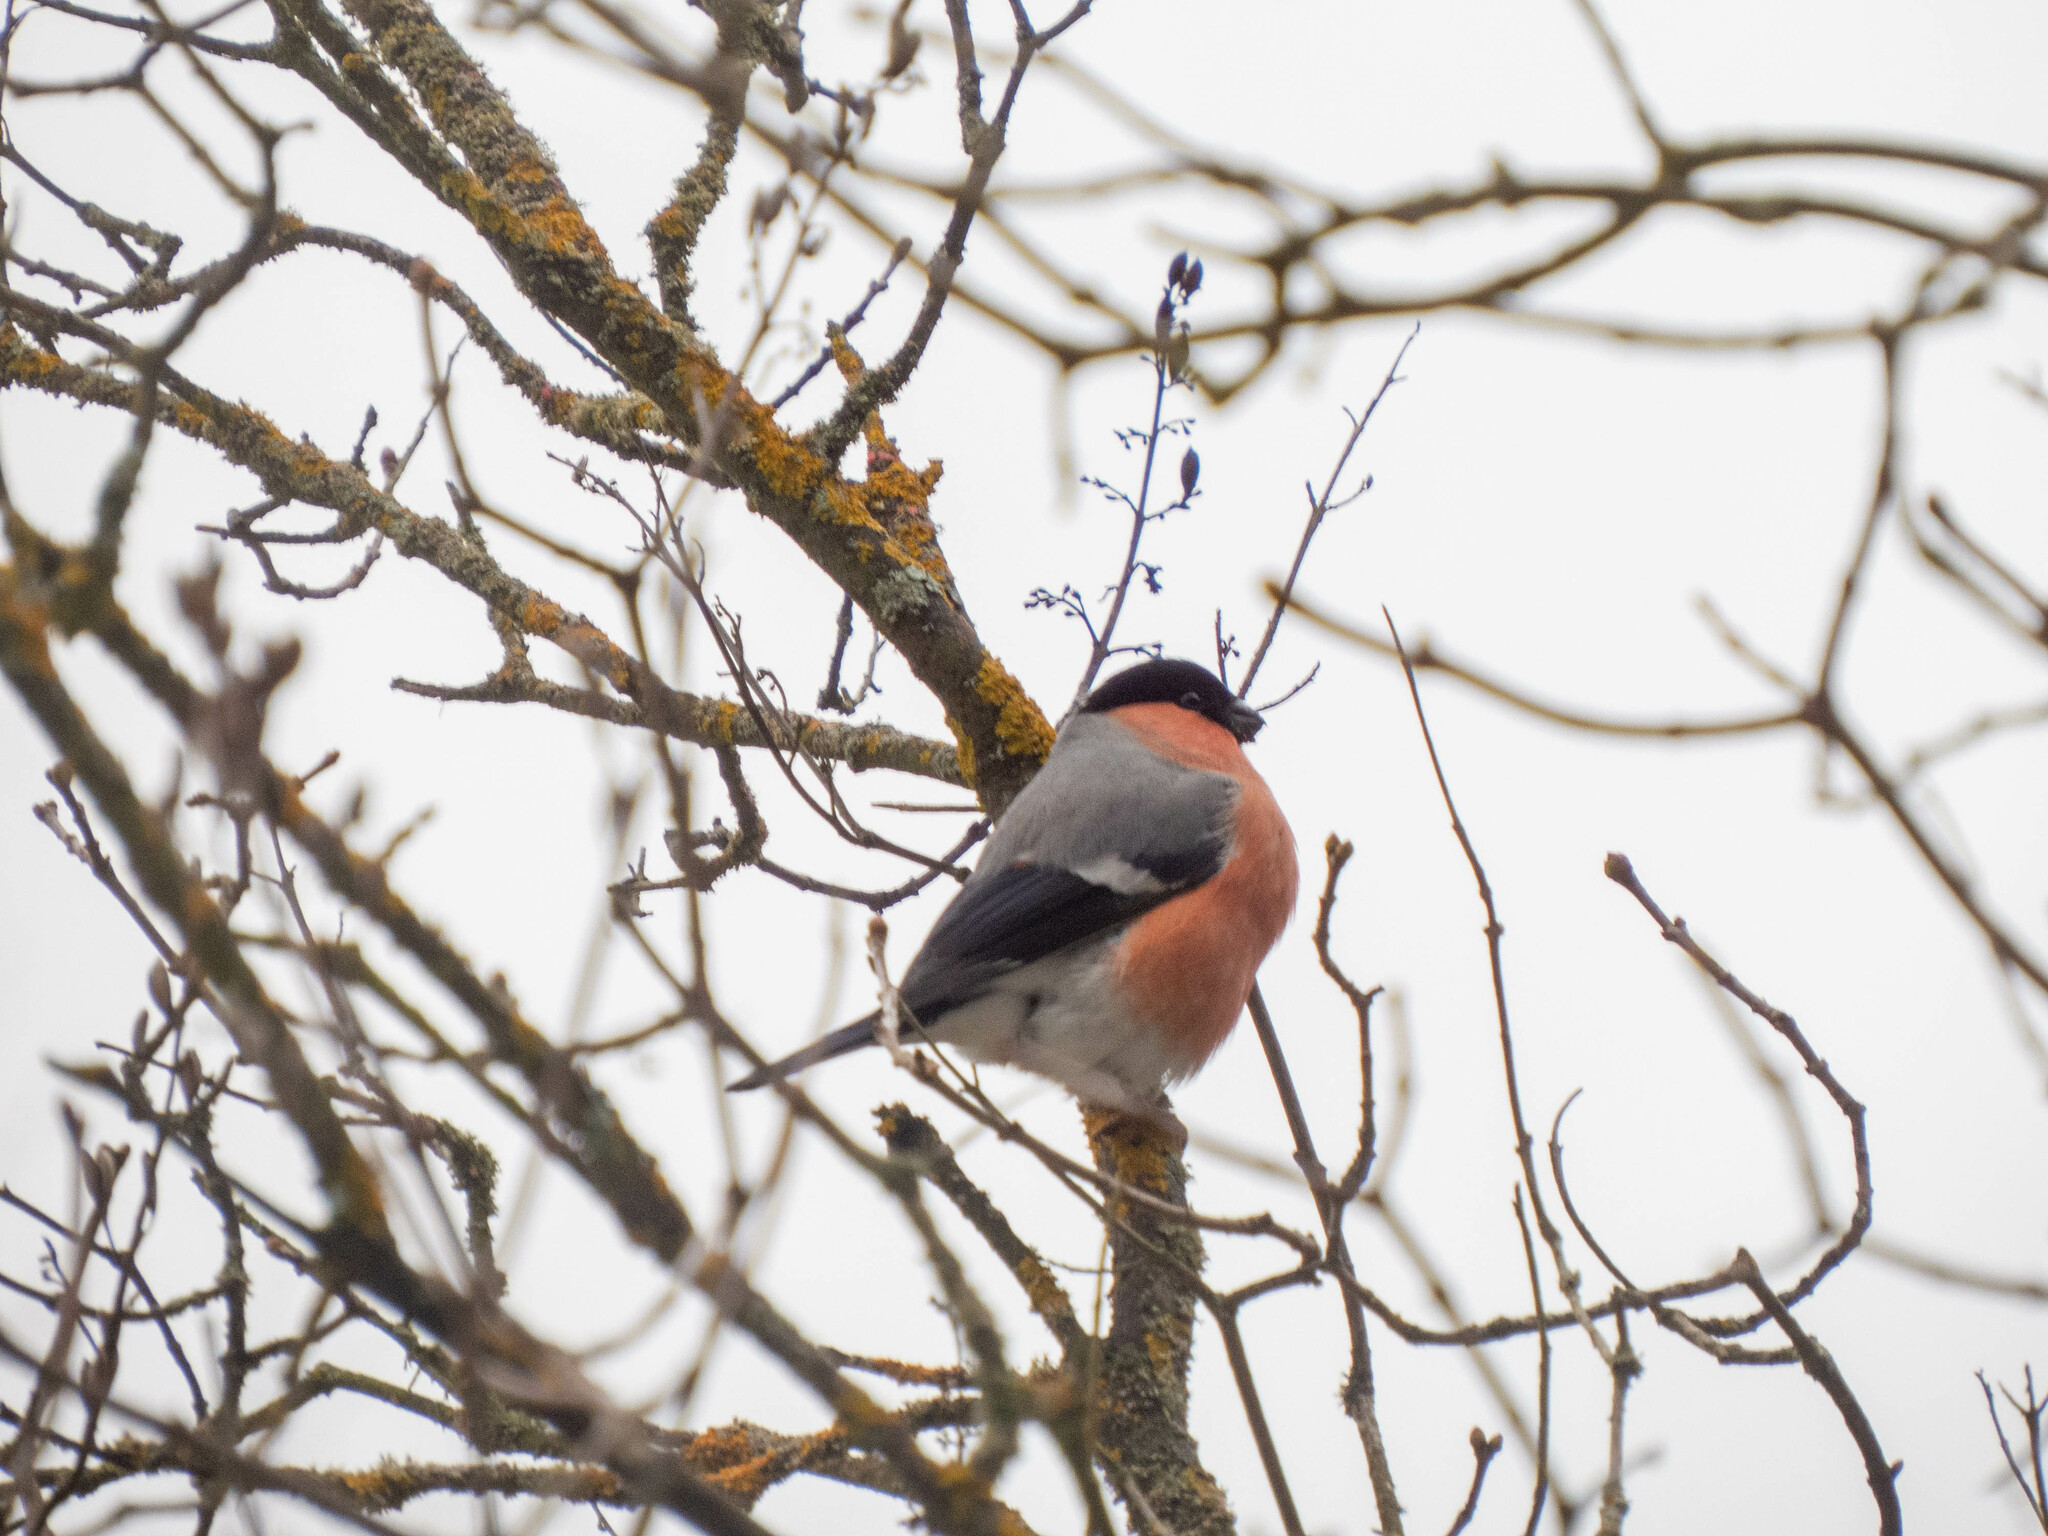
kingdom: Animalia
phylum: Chordata
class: Aves
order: Passeriformes
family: Fringillidae
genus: Pyrrhula
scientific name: Pyrrhula pyrrhula
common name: Eurasian bullfinch
